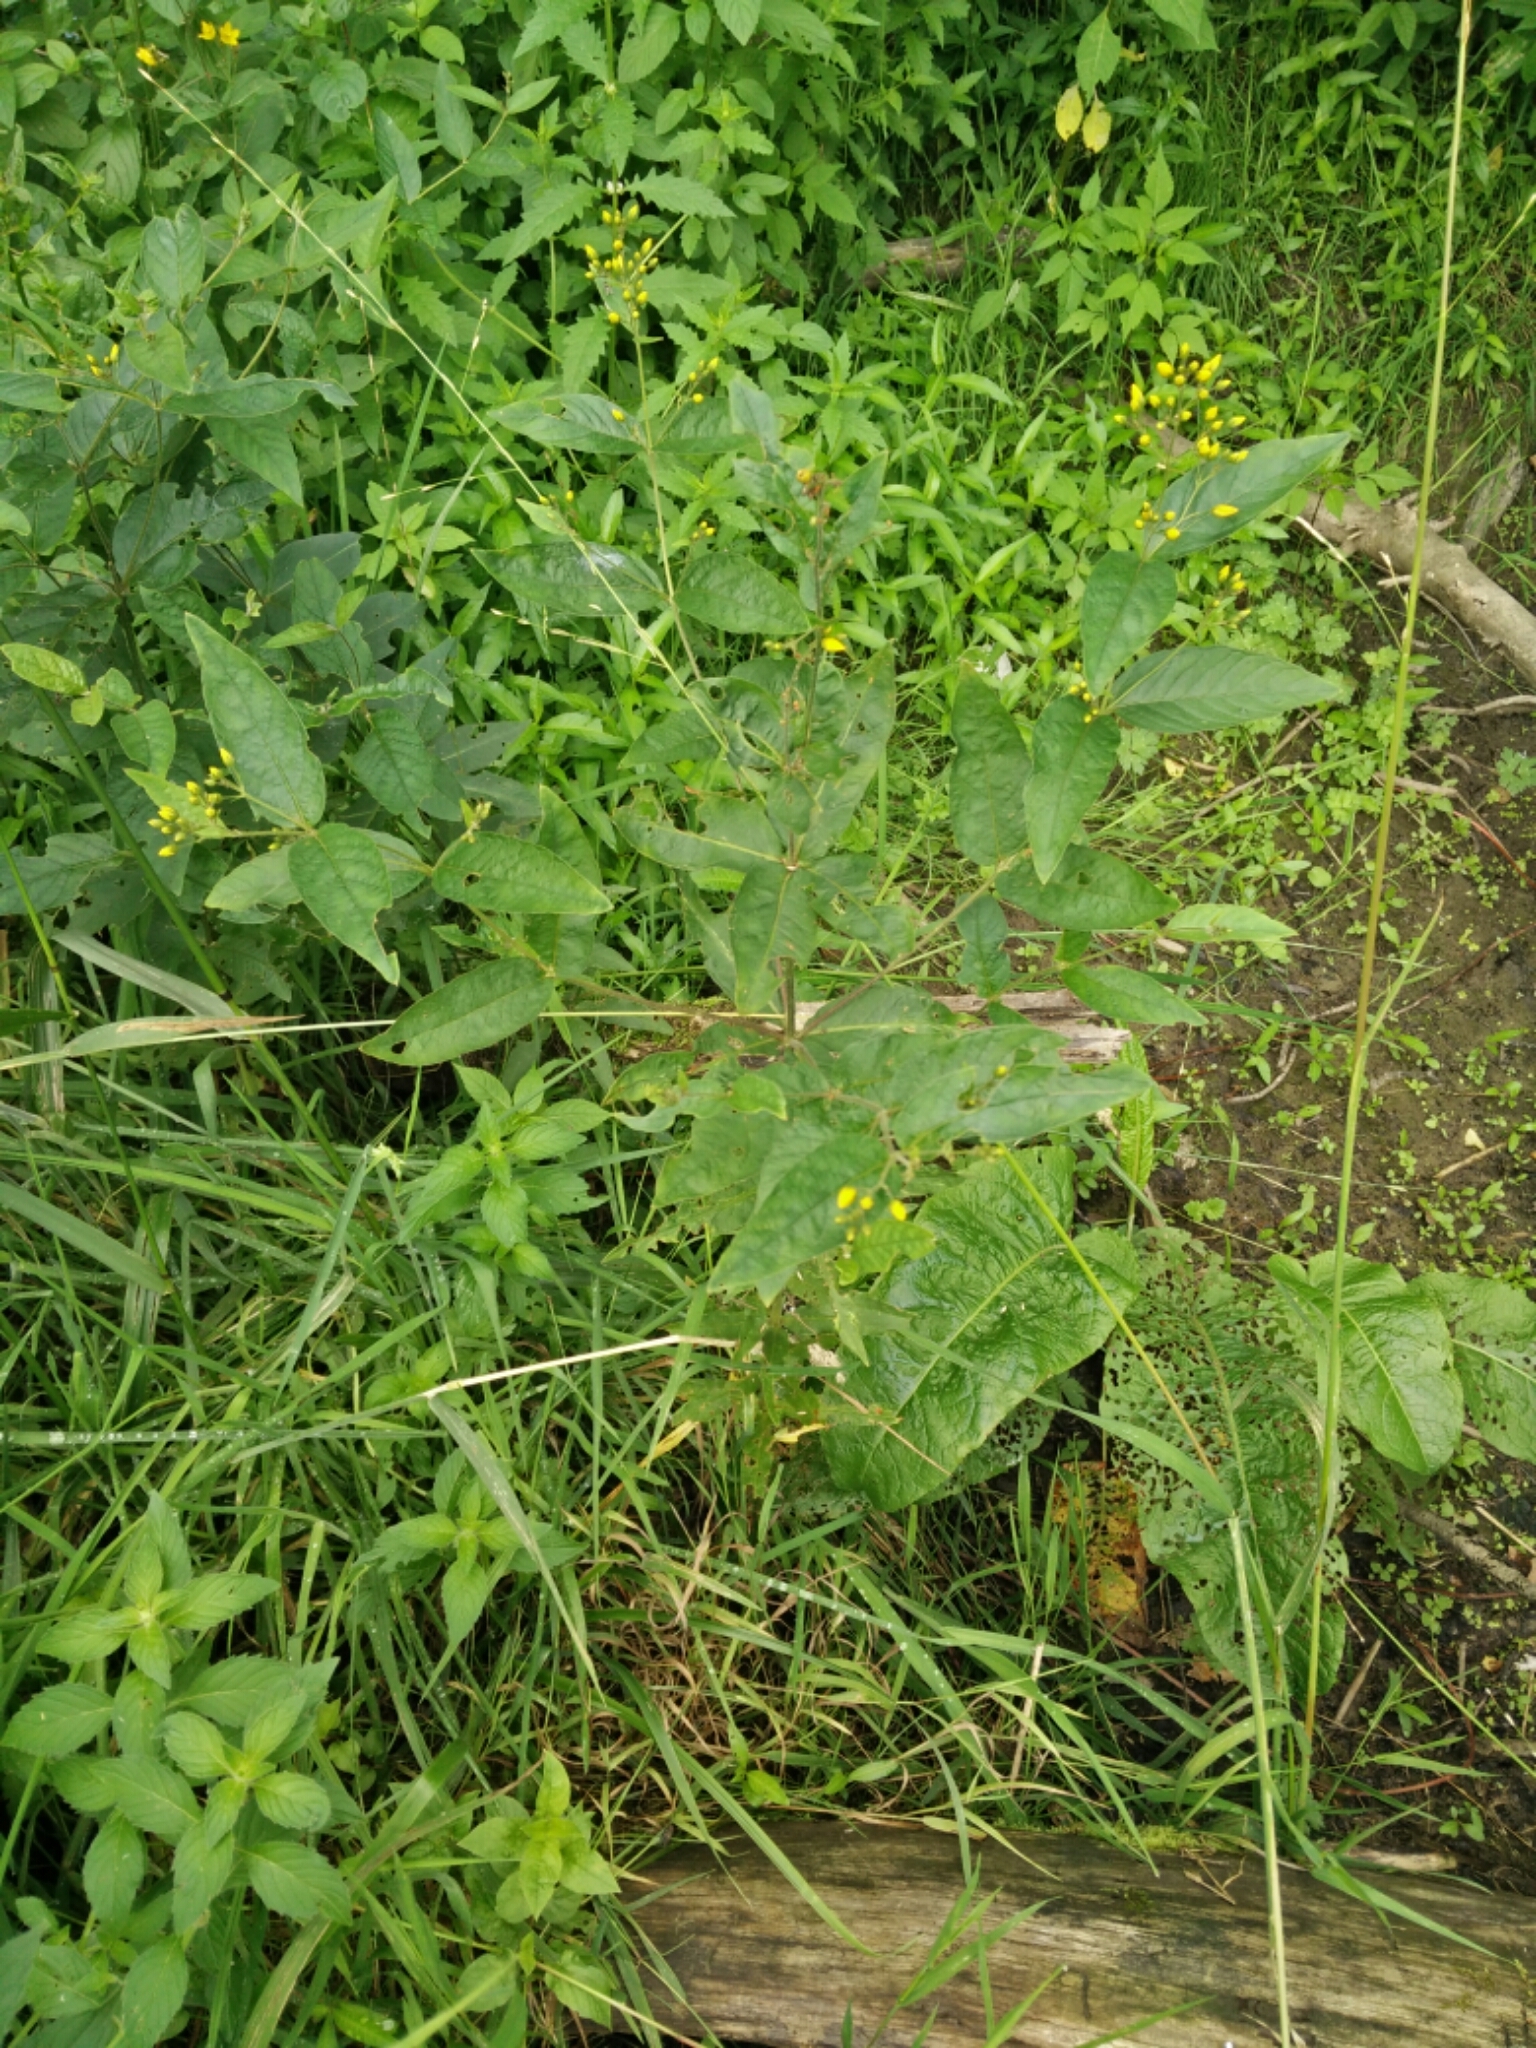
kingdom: Plantae
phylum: Tracheophyta
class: Magnoliopsida
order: Ericales
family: Primulaceae
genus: Lysimachia
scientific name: Lysimachia vulgaris
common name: Yellow loosestrife
